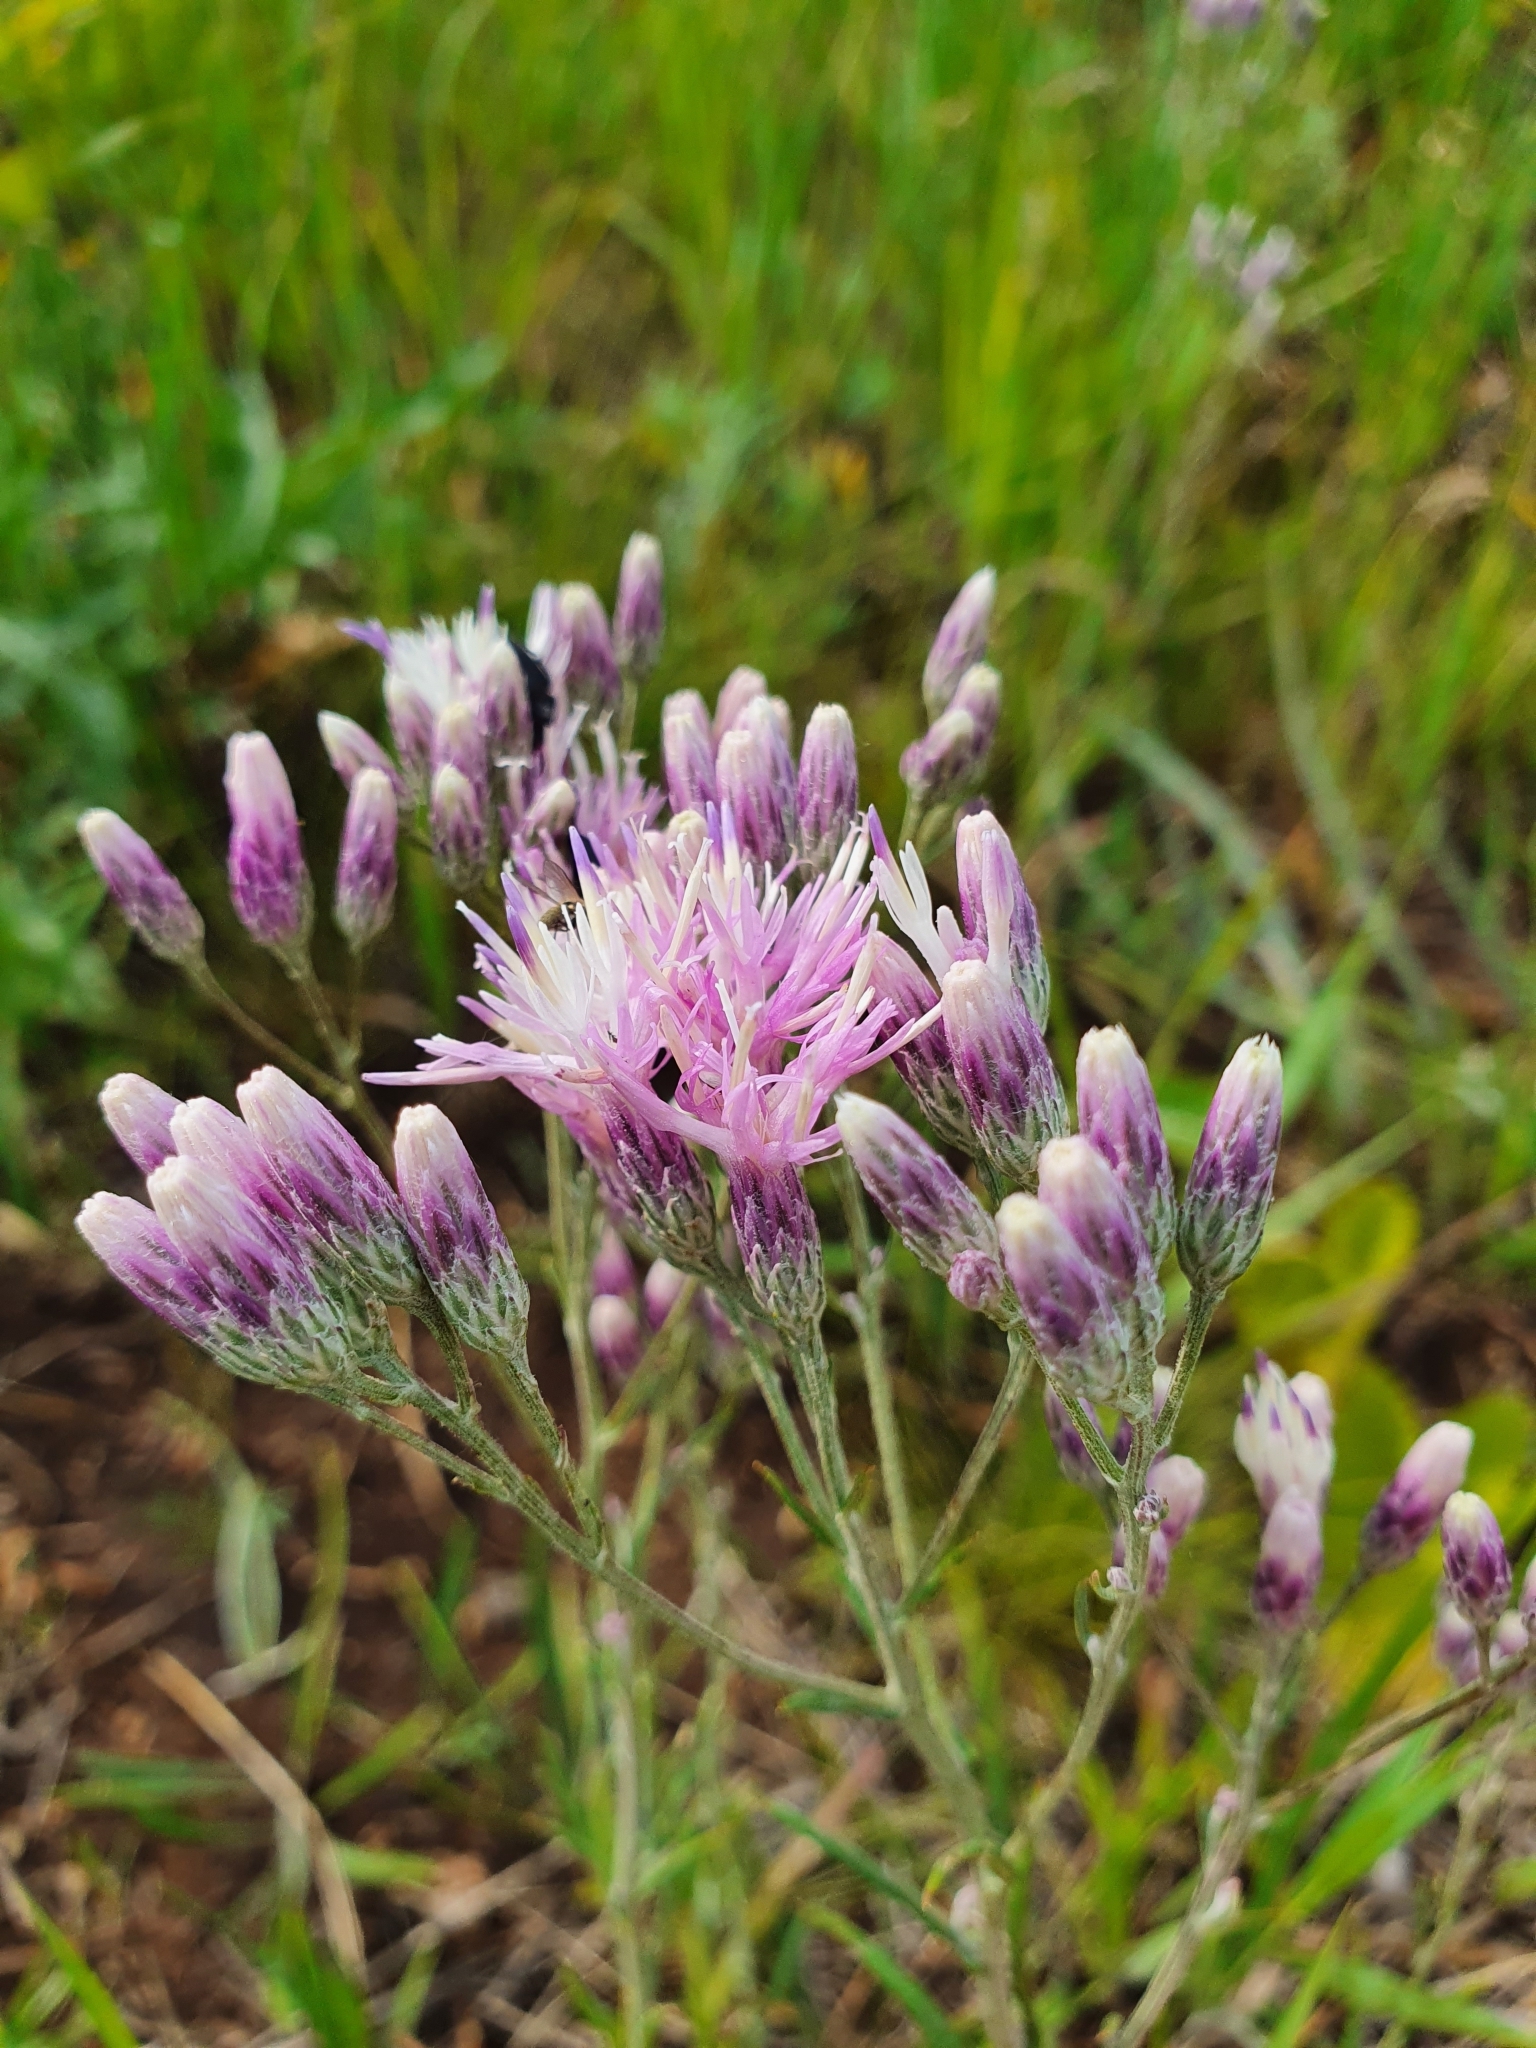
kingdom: Plantae
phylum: Tracheophyta
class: Magnoliopsida
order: Asterales
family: Asteraceae
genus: Jurinea
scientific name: Jurinea multiflora
